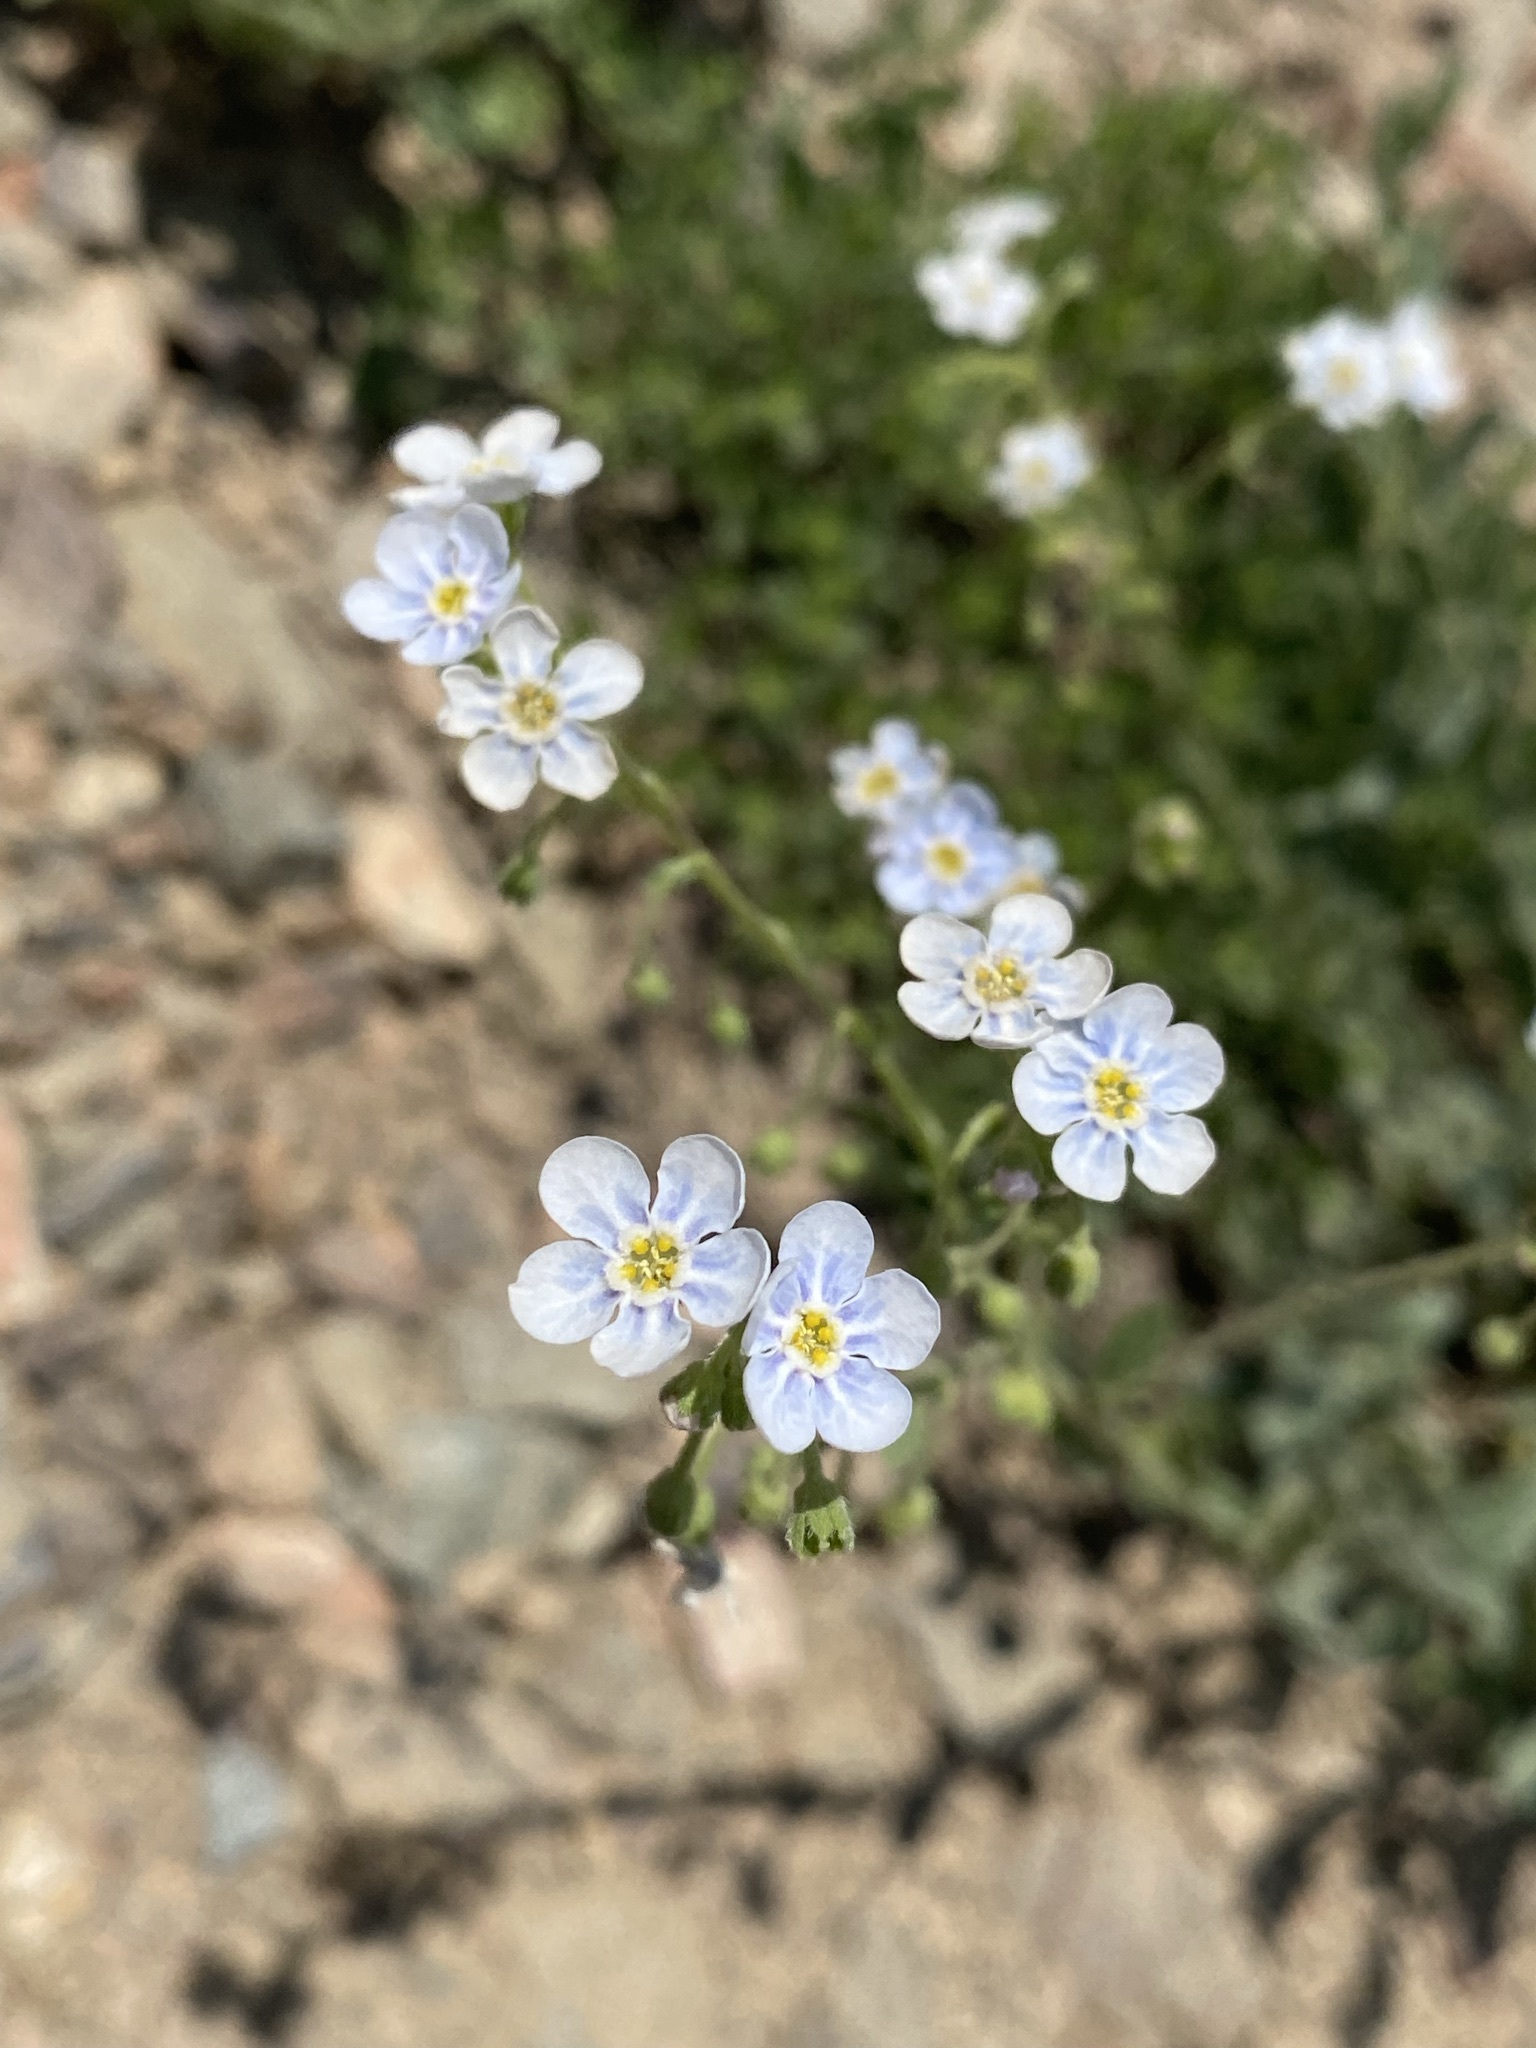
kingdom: Plantae
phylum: Tracheophyta
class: Magnoliopsida
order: Boraginales
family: Boraginaceae
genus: Hackelia
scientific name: Hackelia patens
